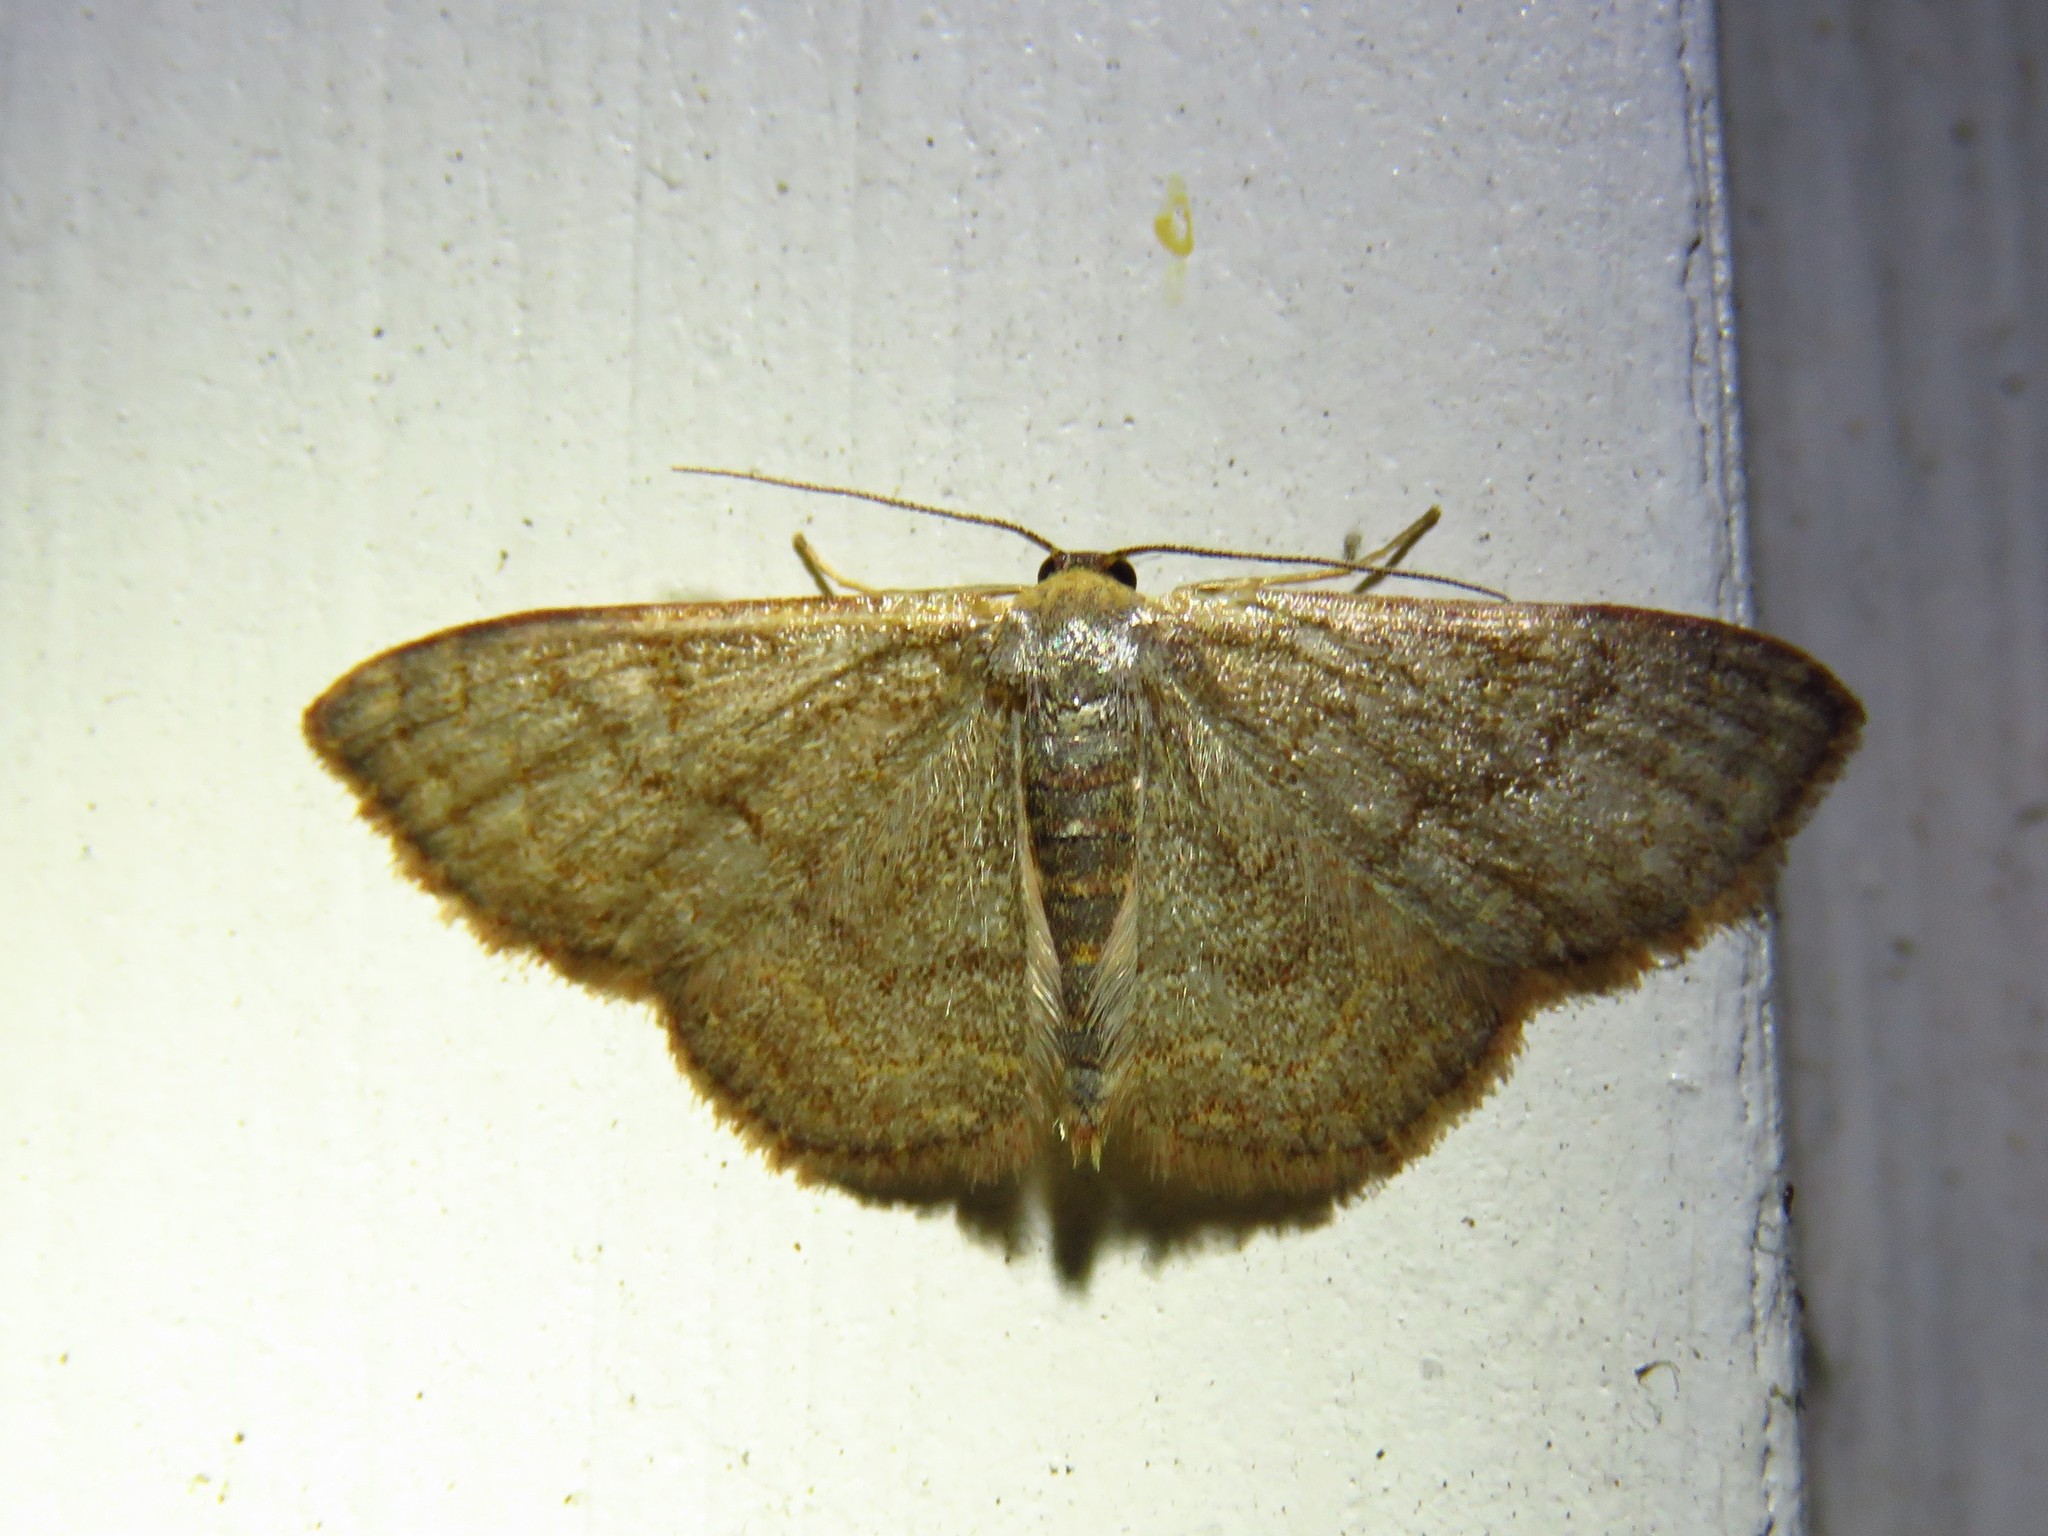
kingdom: Animalia
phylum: Arthropoda
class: Insecta
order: Lepidoptera
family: Geometridae
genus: Leptostales
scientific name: Leptostales pannaria
